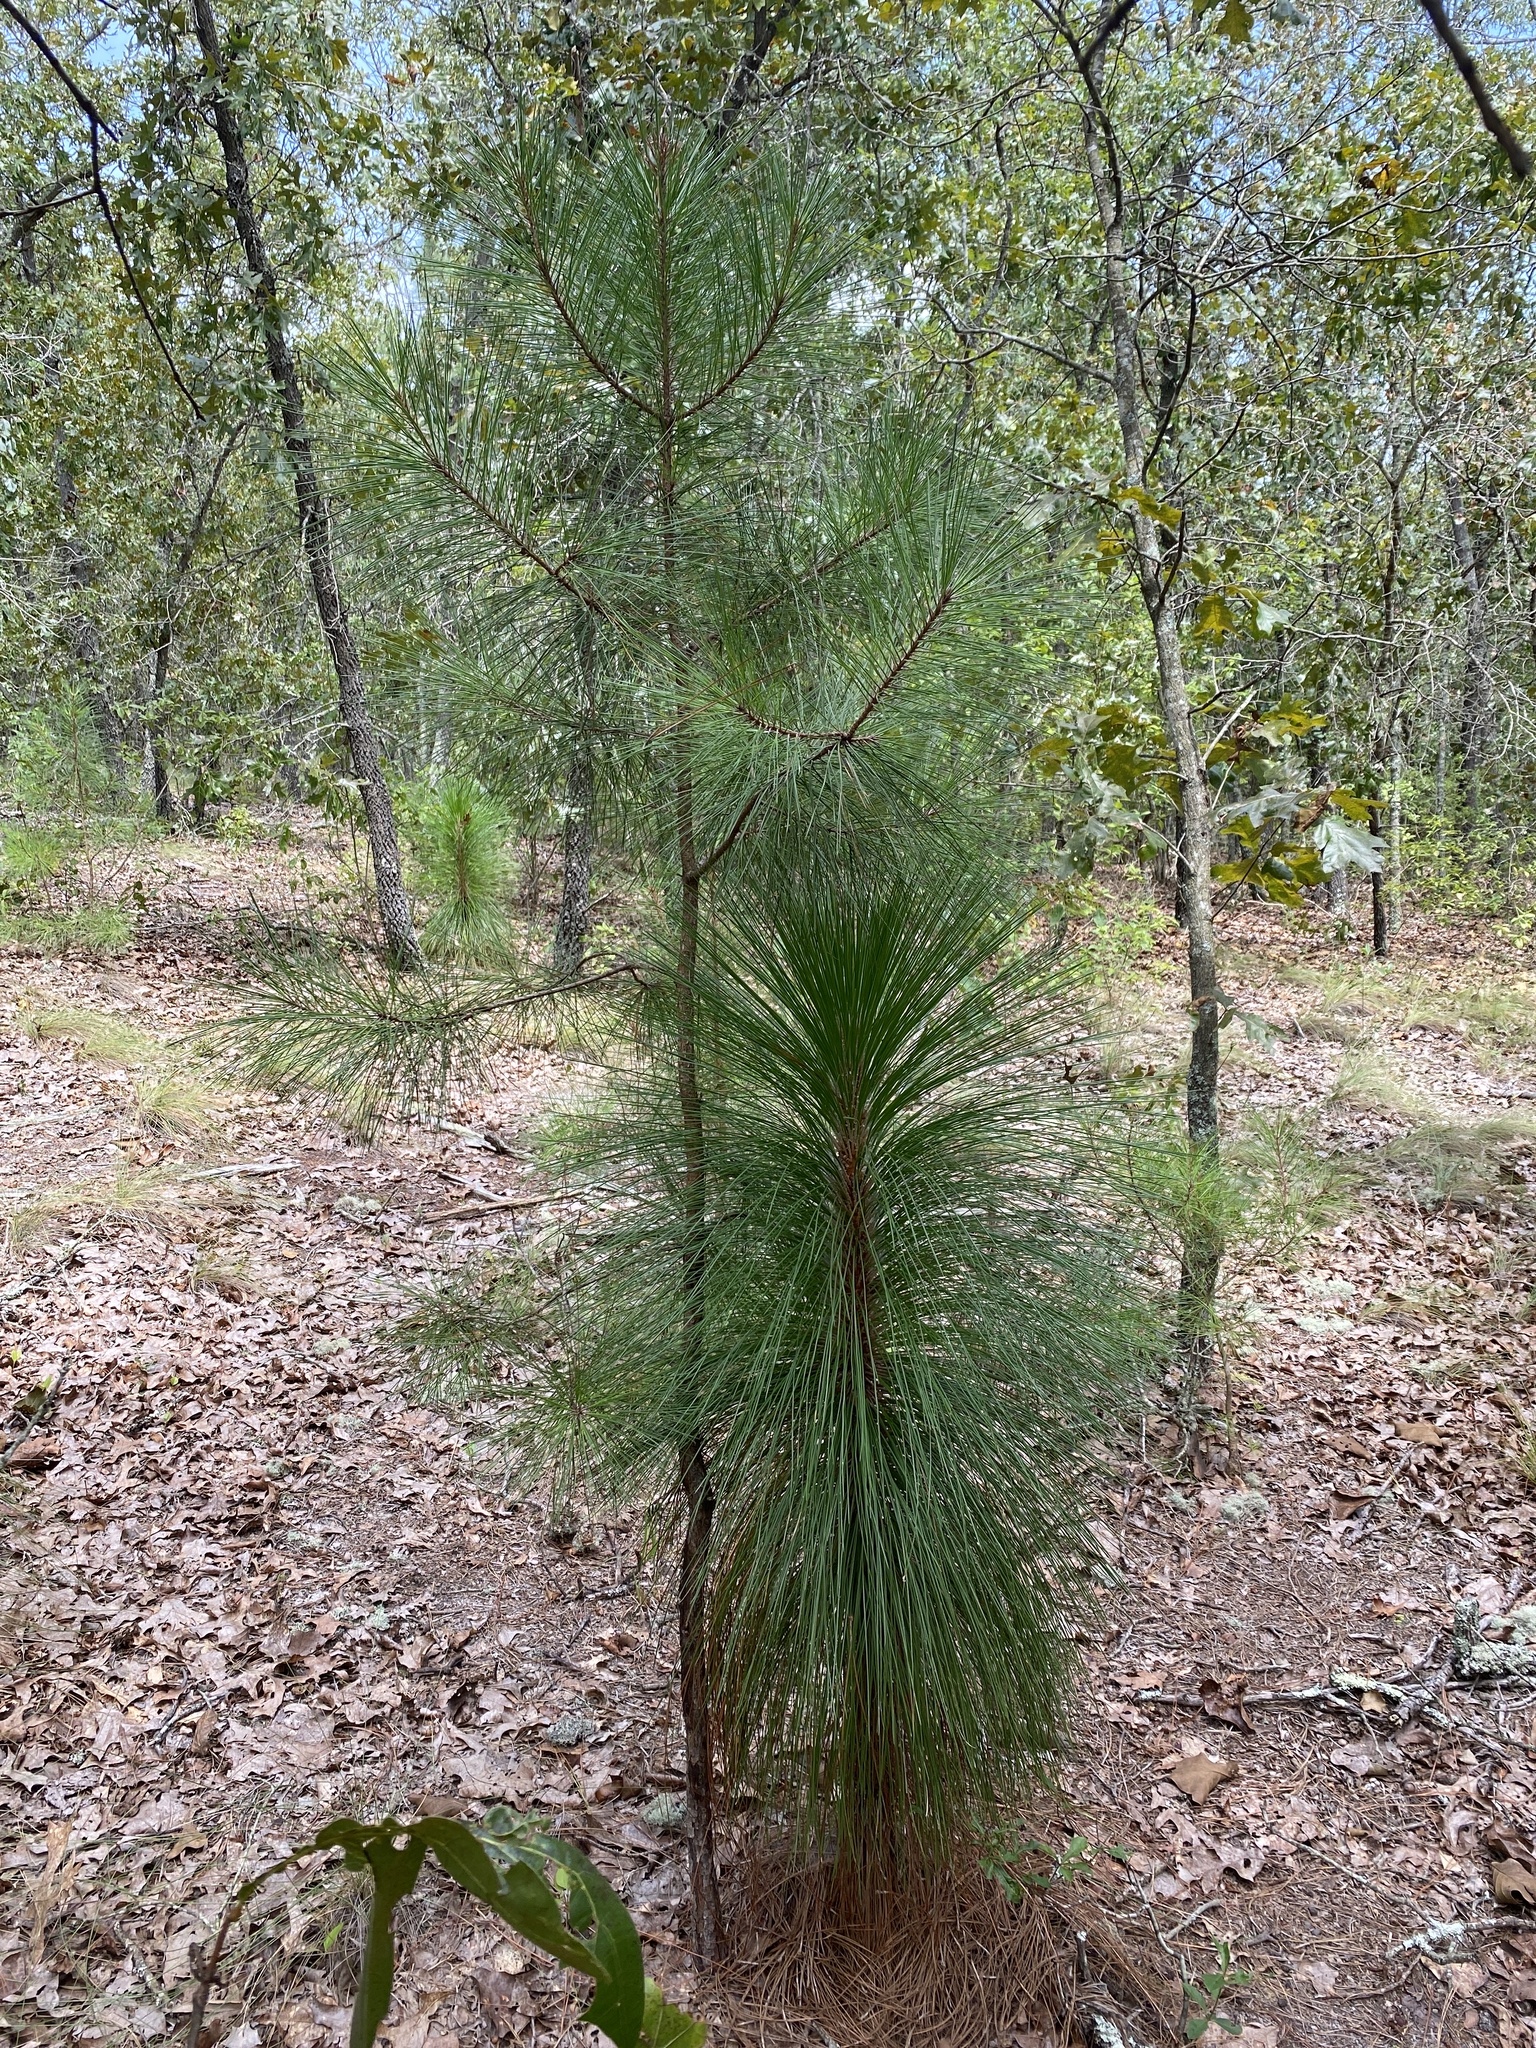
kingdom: Plantae
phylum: Tracheophyta
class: Pinopsida
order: Pinales
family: Pinaceae
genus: Pinus
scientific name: Pinus taeda
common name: Loblolly pine
